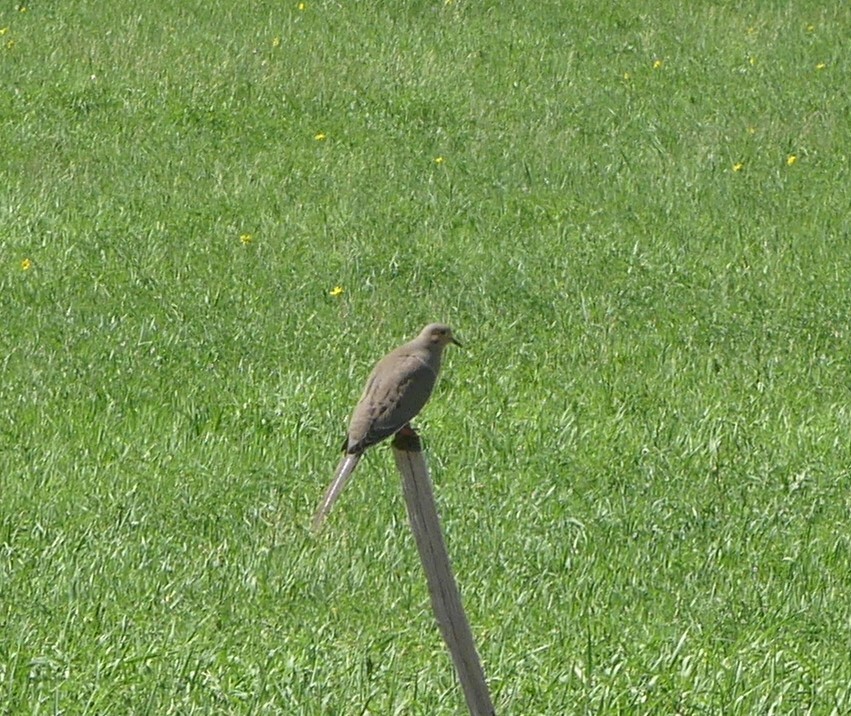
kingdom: Animalia
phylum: Chordata
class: Aves
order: Columbiformes
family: Columbidae
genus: Zenaida
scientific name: Zenaida macroura
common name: Mourning dove
